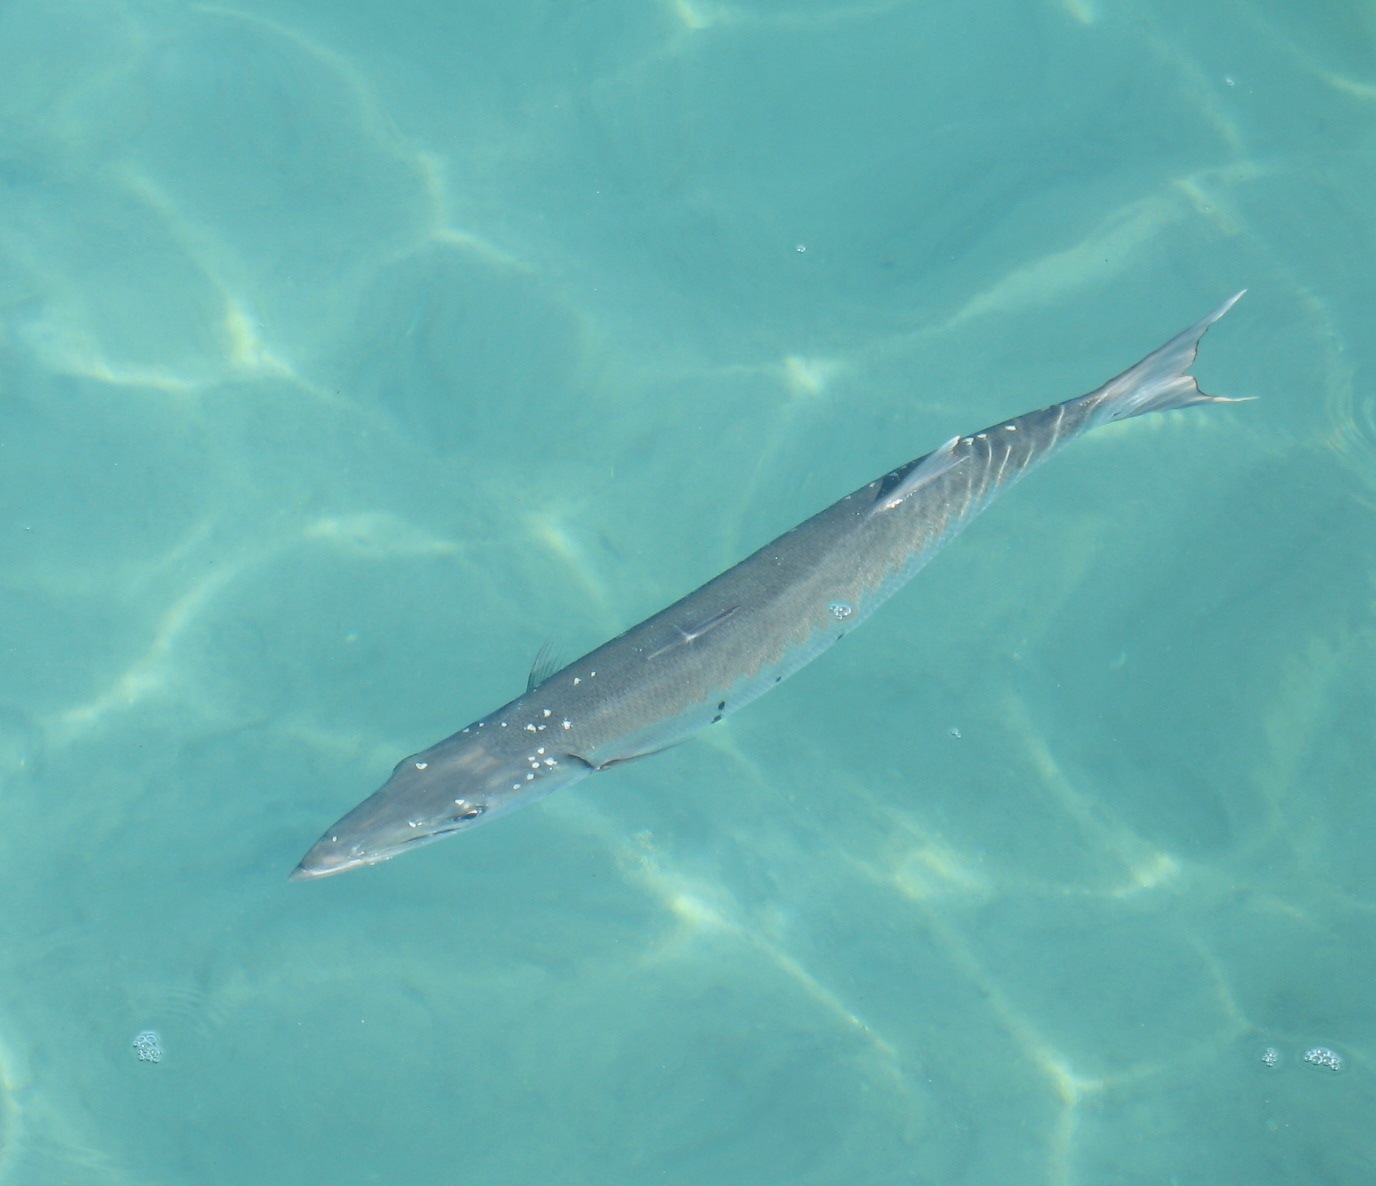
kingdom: Animalia
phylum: Chordata
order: Perciformes
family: Sphyraenidae
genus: Sphyraena
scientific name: Sphyraena barracuda
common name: Great barracuda
